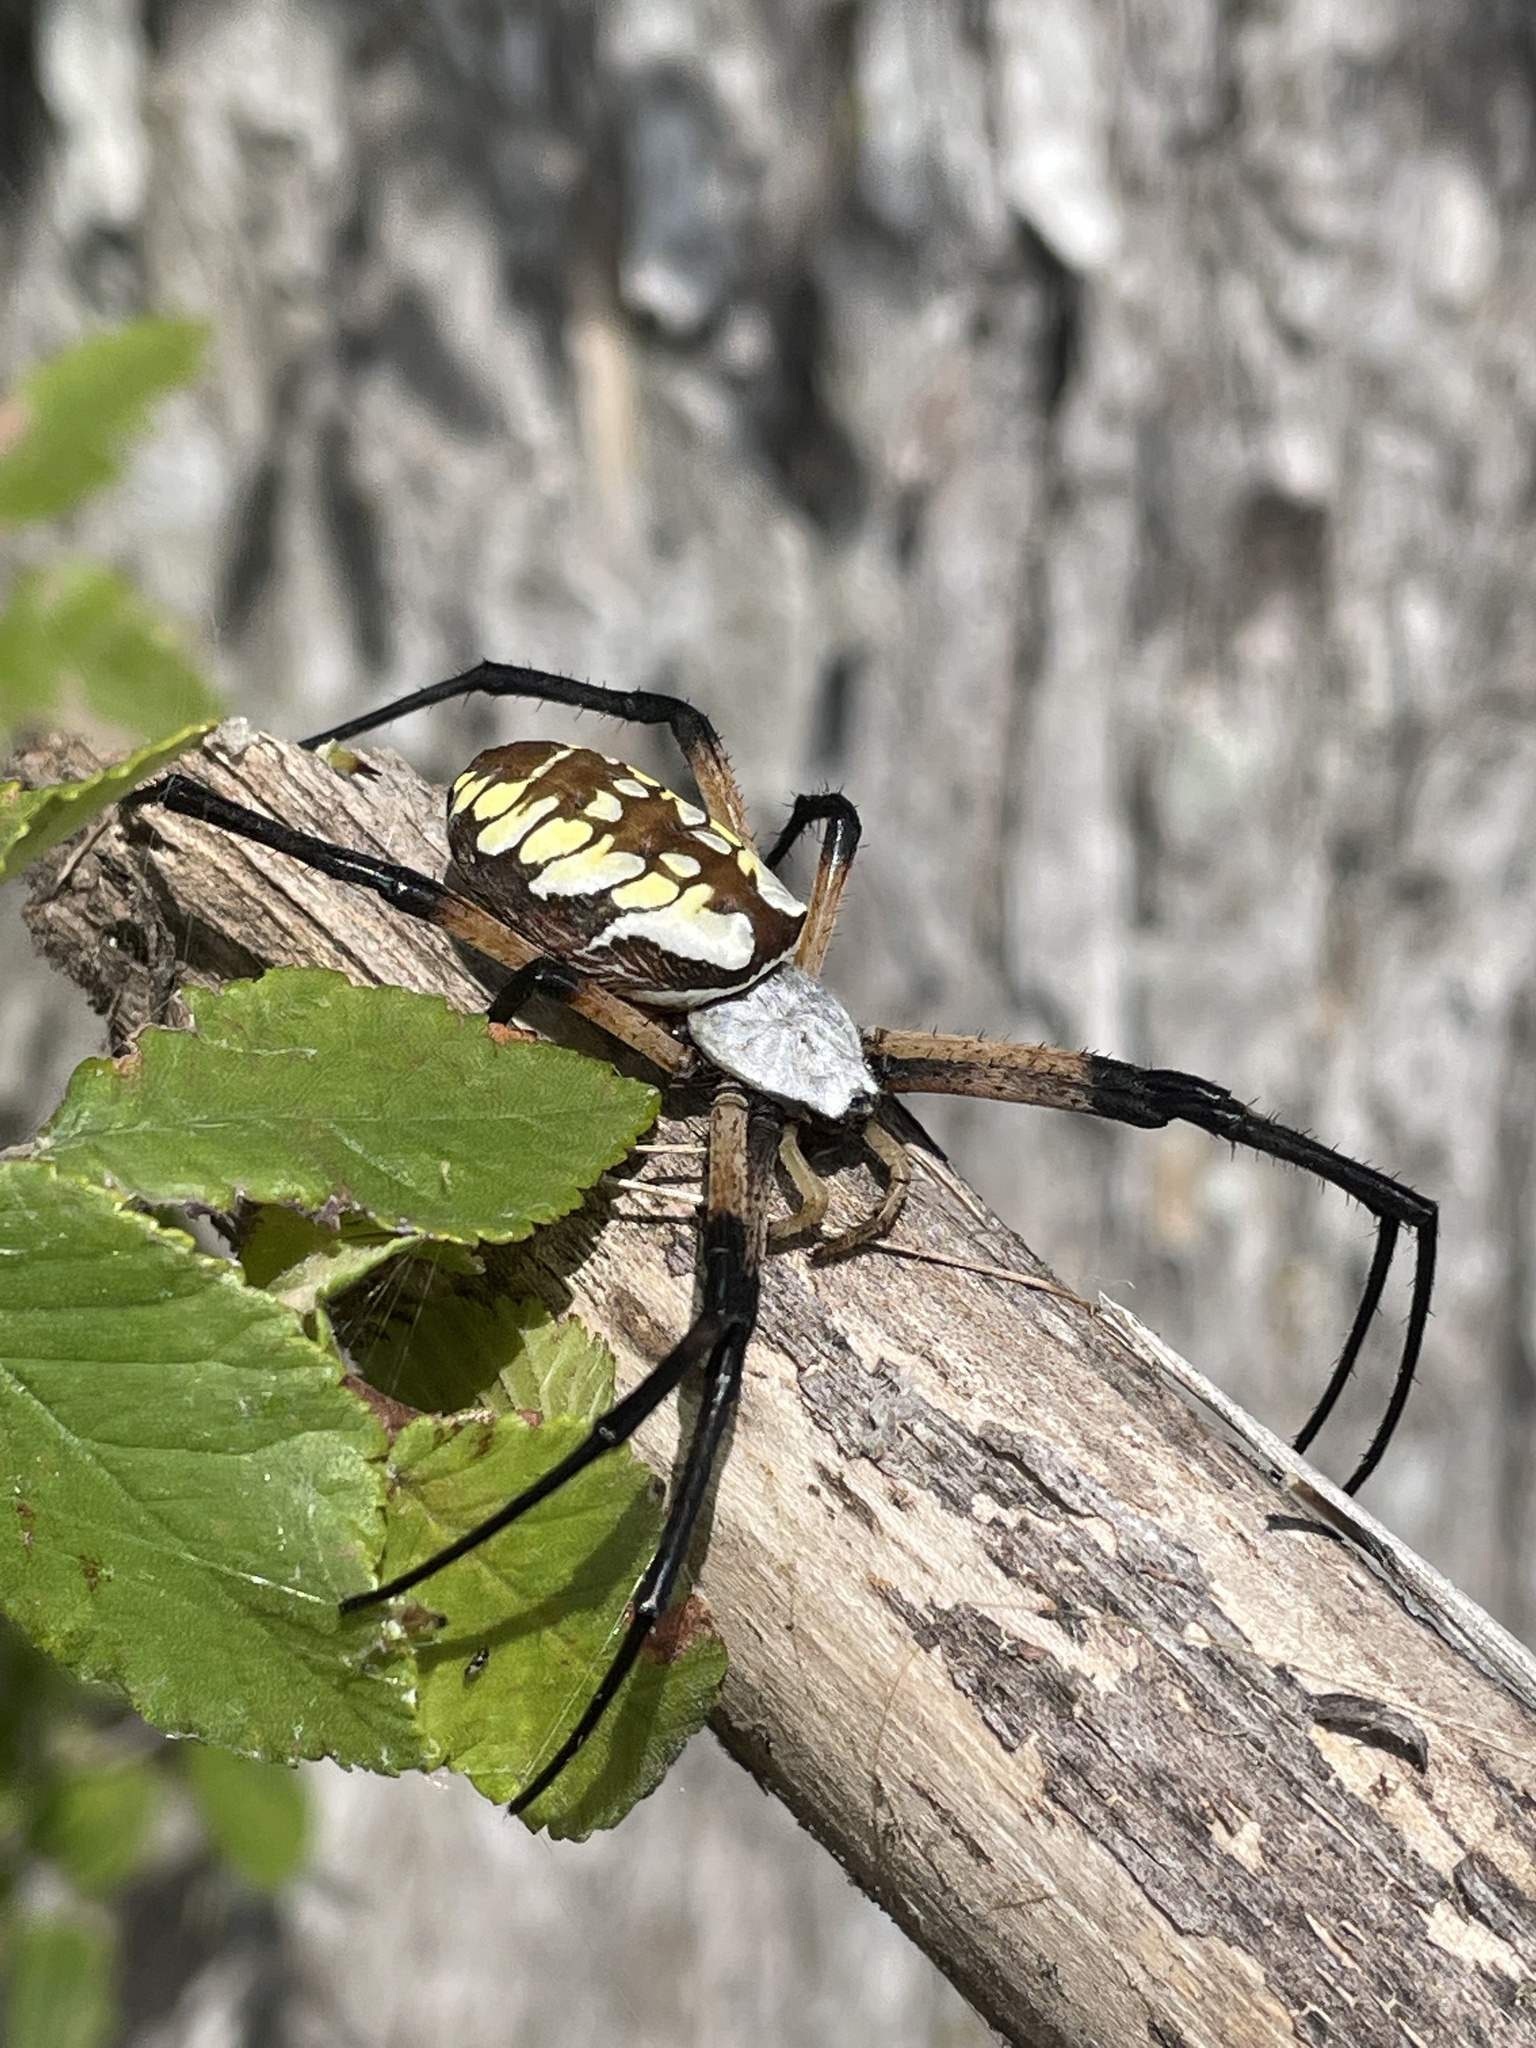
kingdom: Animalia
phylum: Arthropoda
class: Arachnida
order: Araneae
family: Araneidae
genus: Argiope
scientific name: Argiope aurantia
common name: Orb weavers
